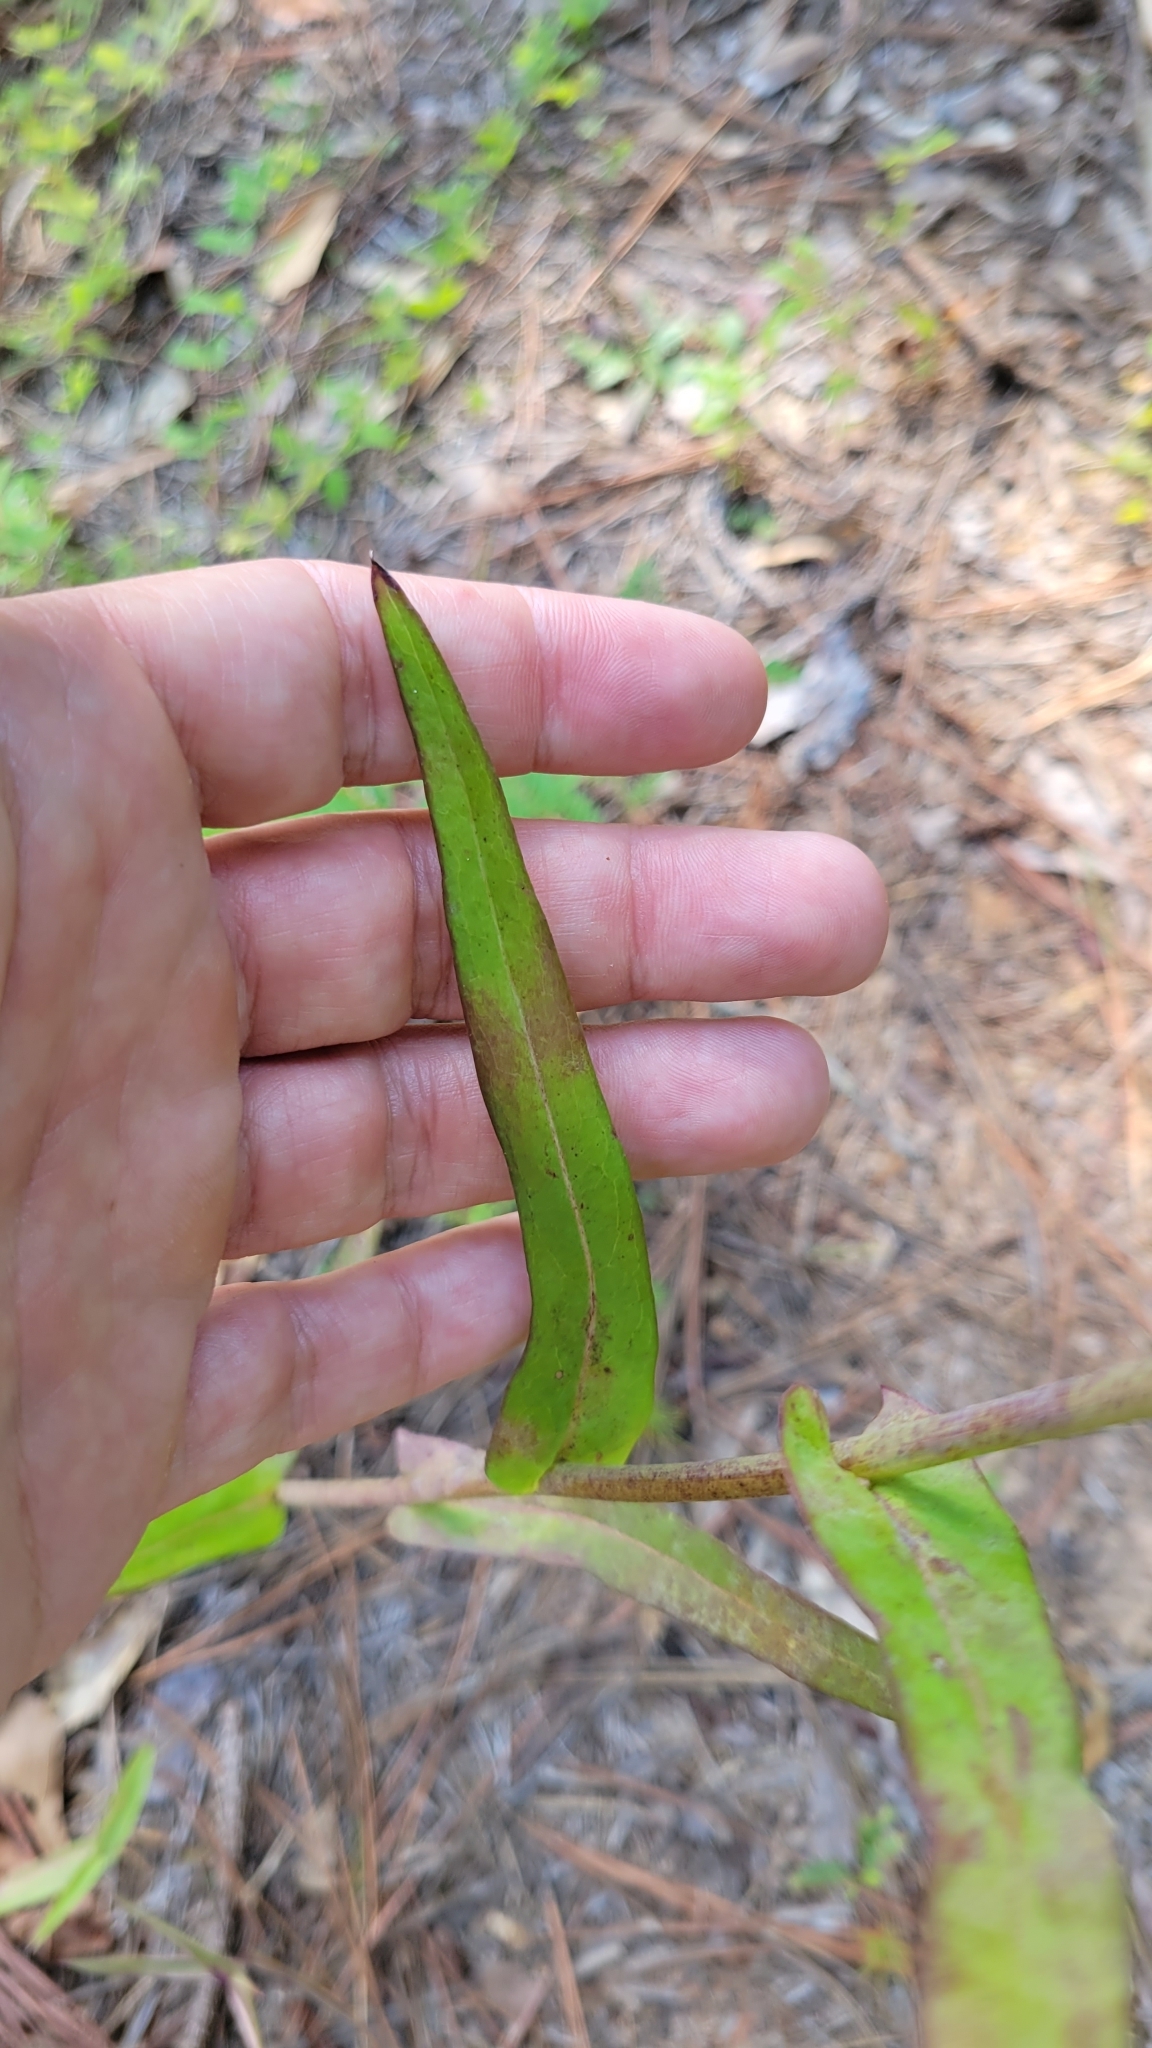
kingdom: Plantae
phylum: Tracheophyta
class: Magnoliopsida
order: Asterales
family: Asteraceae
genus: Lactuca
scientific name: Lactuca graminifolia
